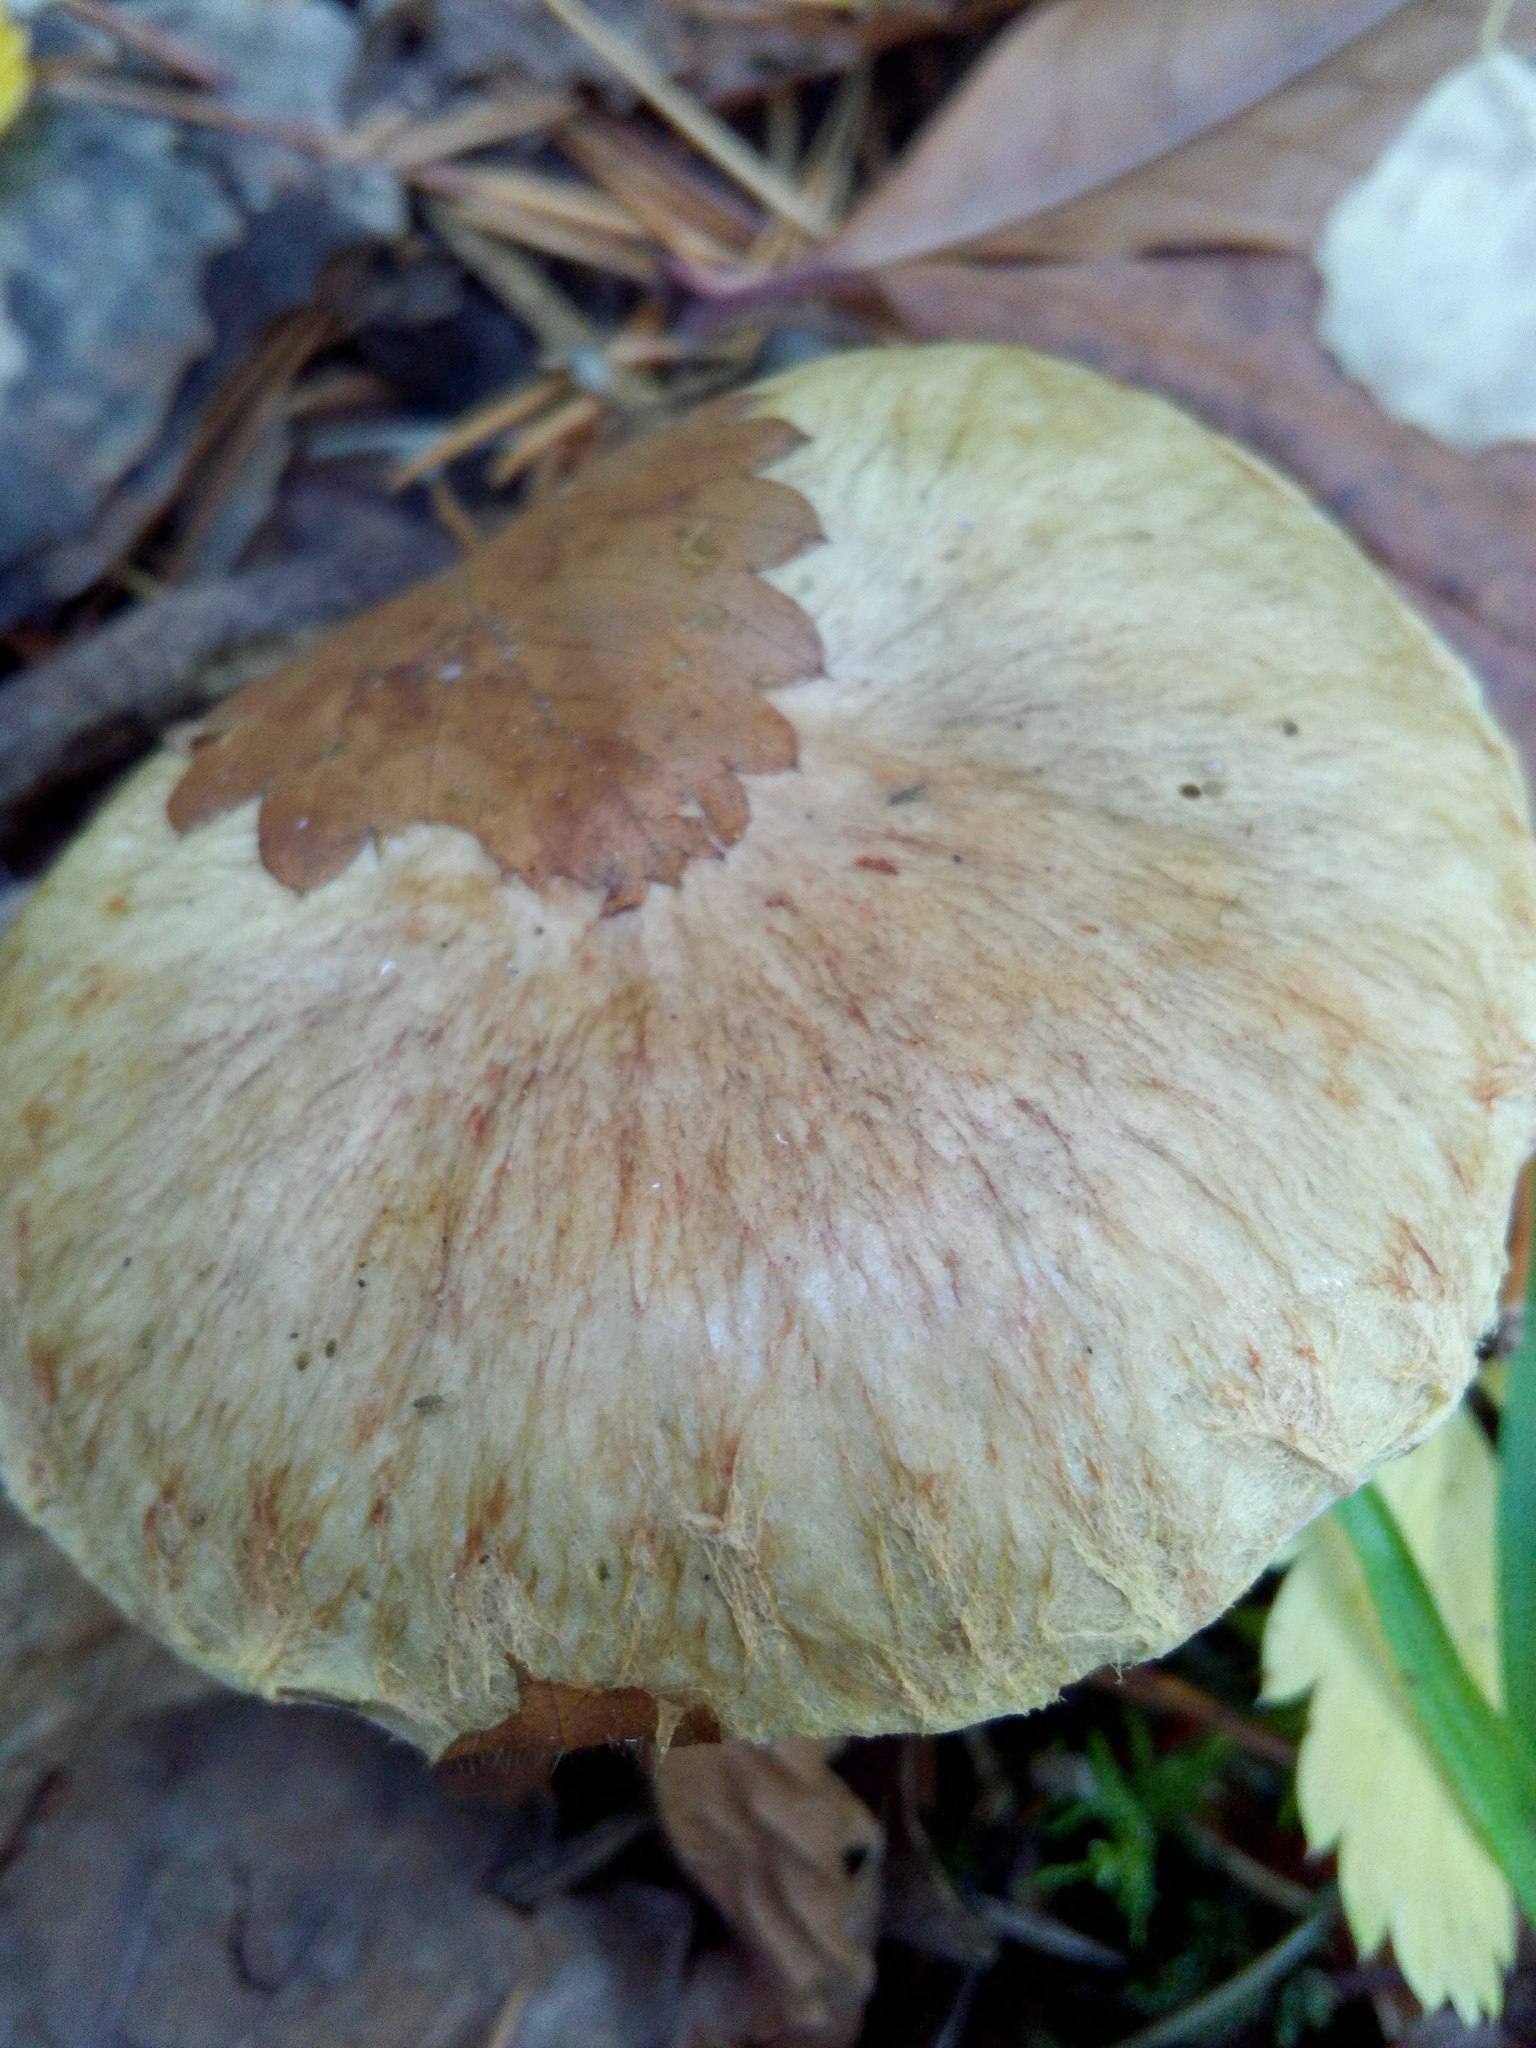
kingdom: Fungi
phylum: Basidiomycota
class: Agaricomycetes
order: Boletales
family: Suillaceae
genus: Suillus
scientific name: Suillus americanus
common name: Chicken fat mushroom
